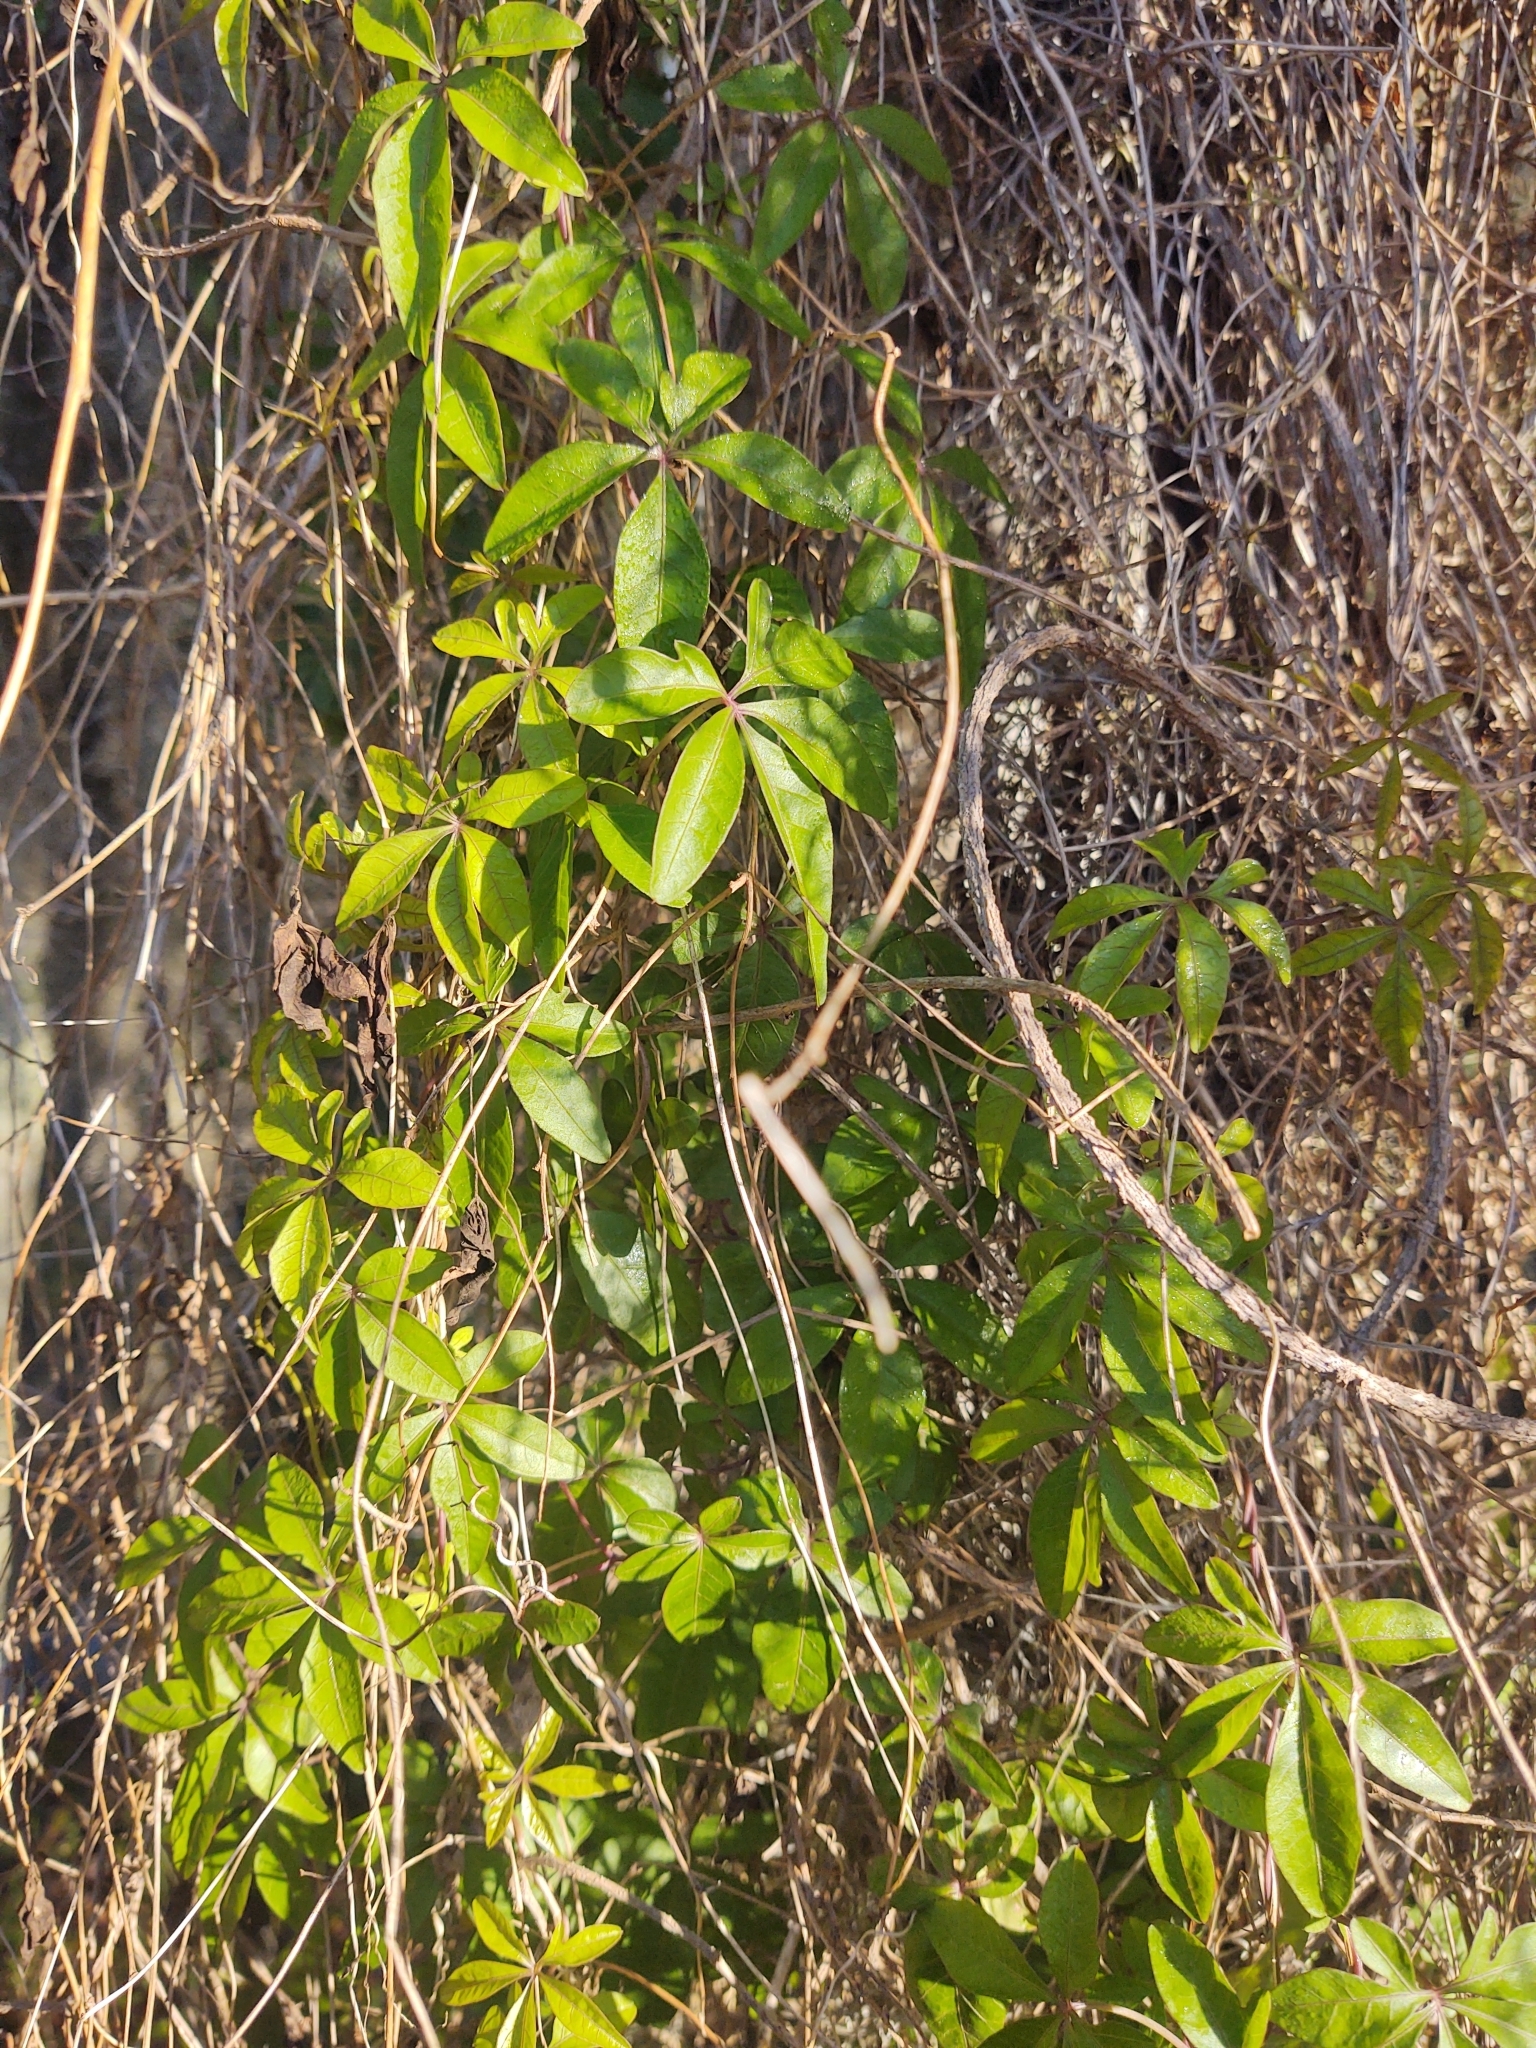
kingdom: Plantae
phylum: Tracheophyta
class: Magnoliopsida
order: Solanales
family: Convolvulaceae
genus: Ipomoea
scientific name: Ipomoea cairica
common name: Mile a minute vine
